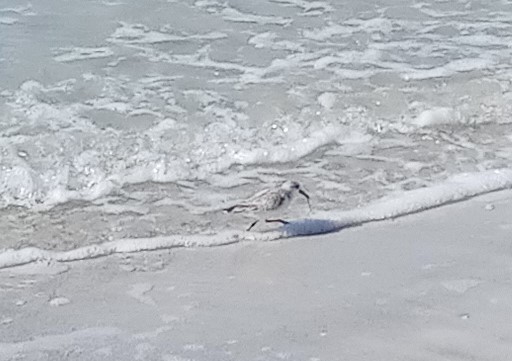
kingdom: Animalia
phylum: Chordata
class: Aves
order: Charadriiformes
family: Scolopacidae
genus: Calidris
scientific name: Calidris alba
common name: Sanderling
